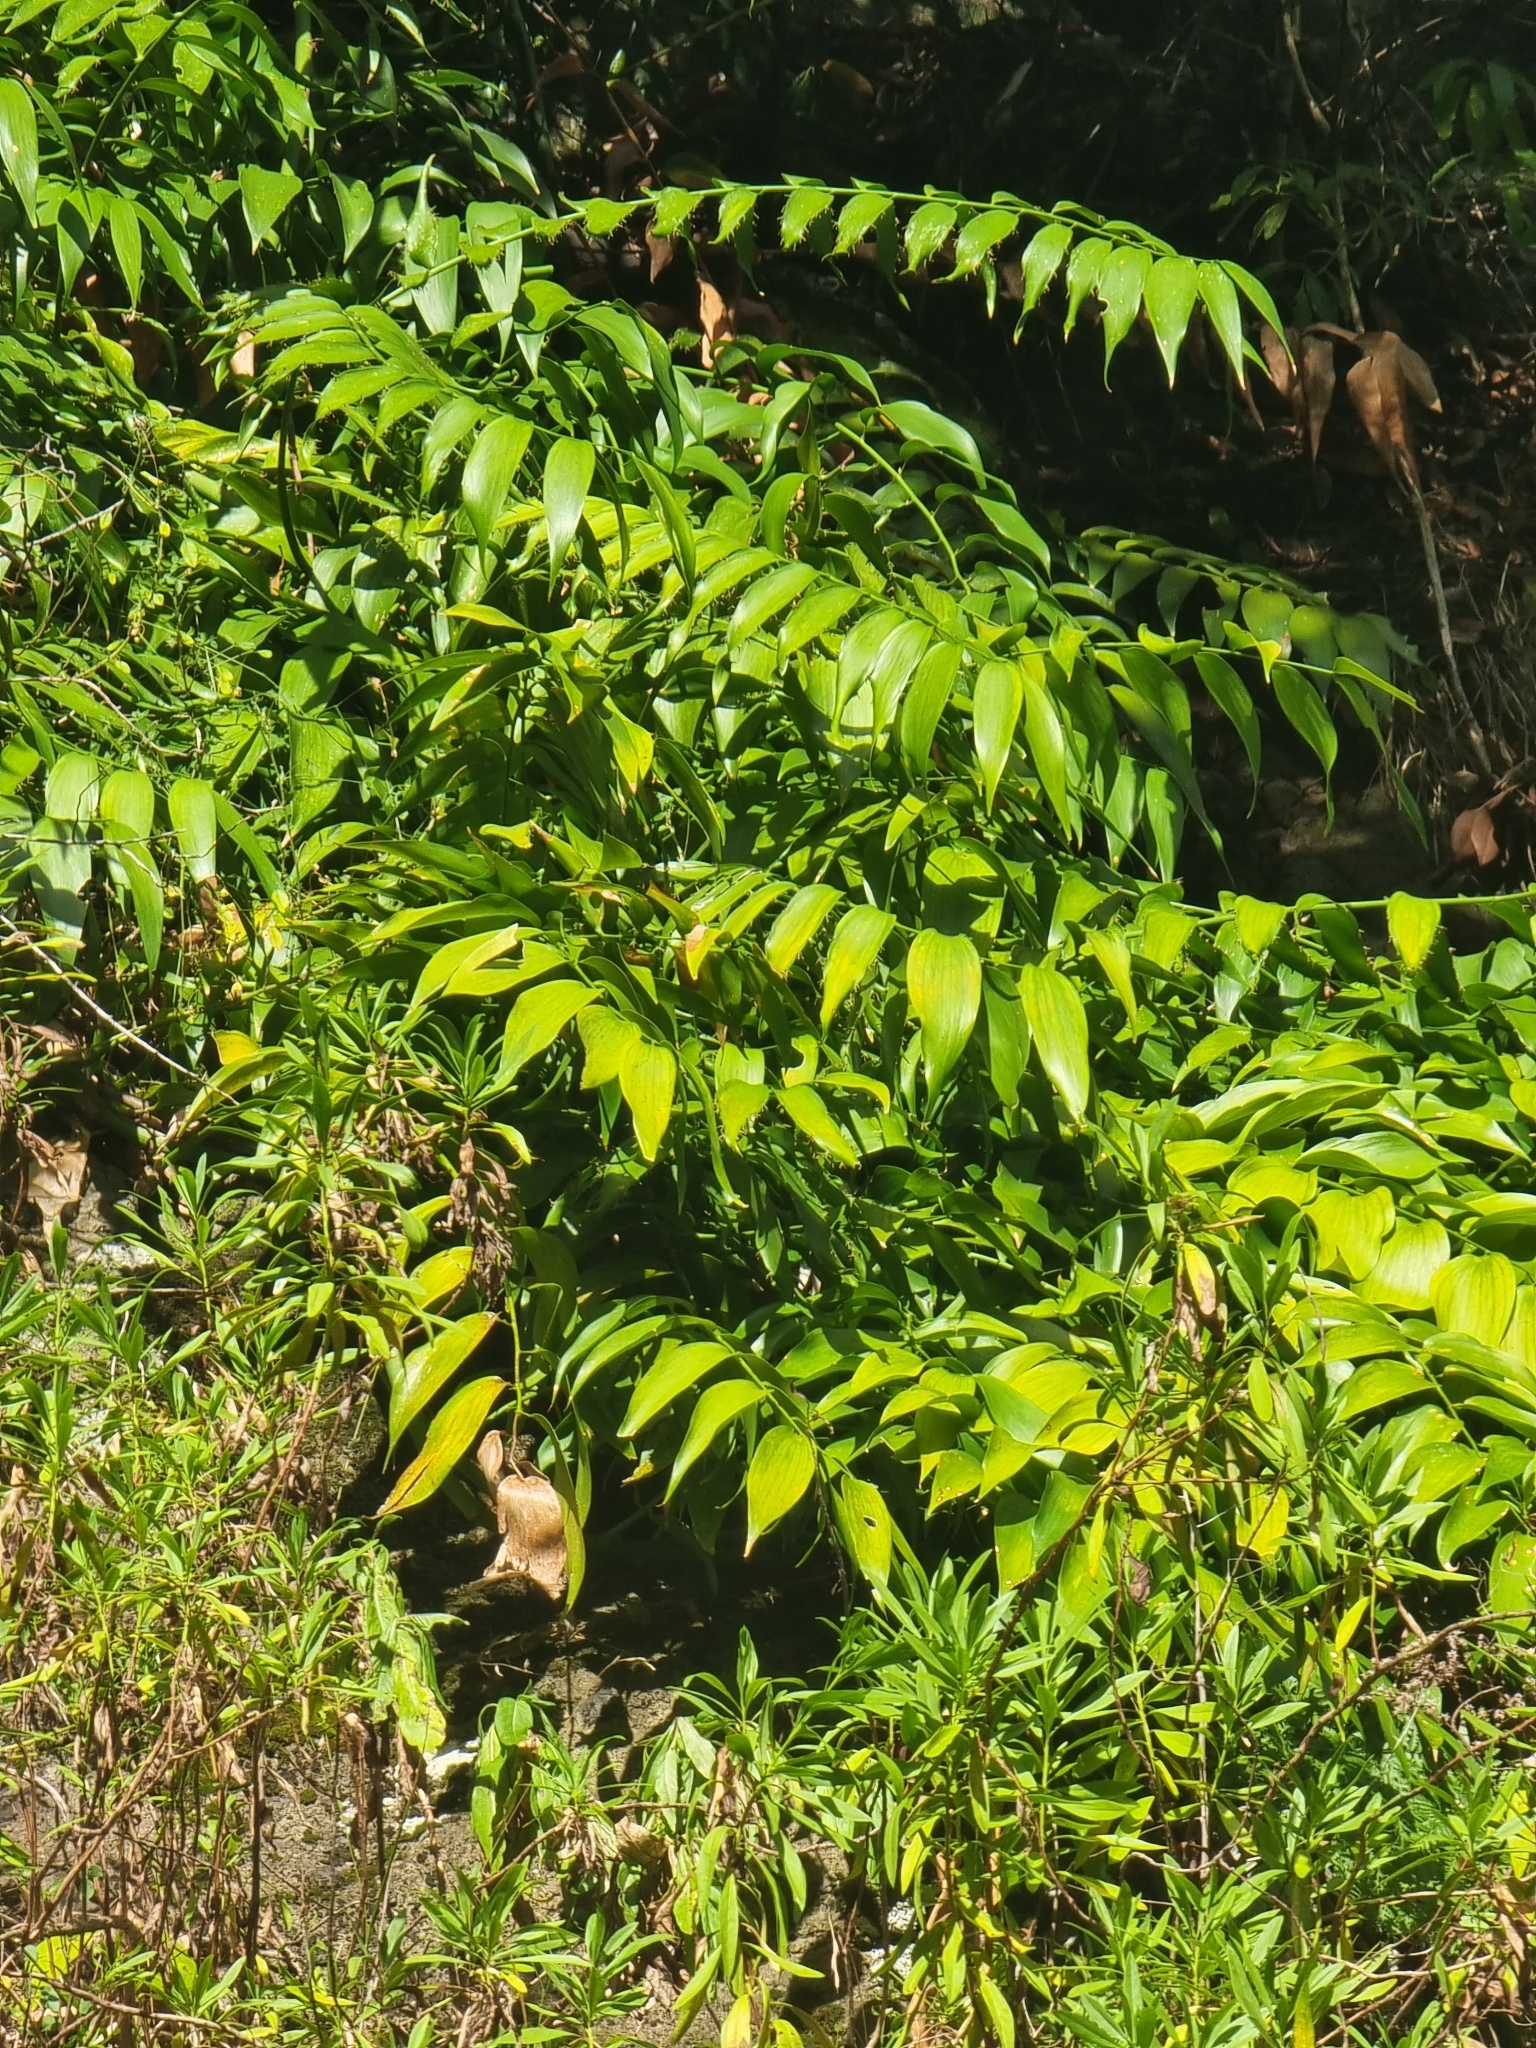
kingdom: Plantae
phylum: Tracheophyta
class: Liliopsida
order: Asparagales
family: Asparagaceae
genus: Semele
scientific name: Semele androgyna
